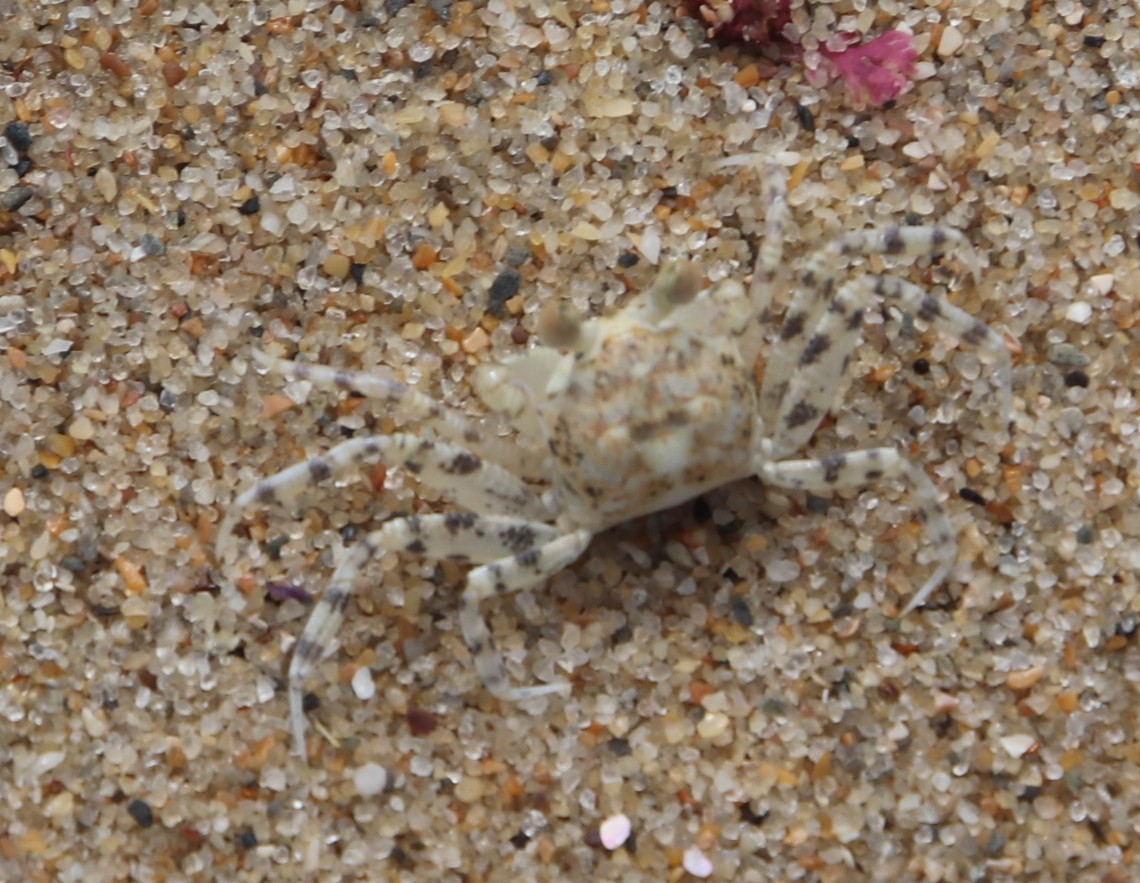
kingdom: Animalia
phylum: Arthropoda
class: Malacostraca
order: Decapoda
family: Ocypodidae
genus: Ocypode
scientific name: Ocypode
